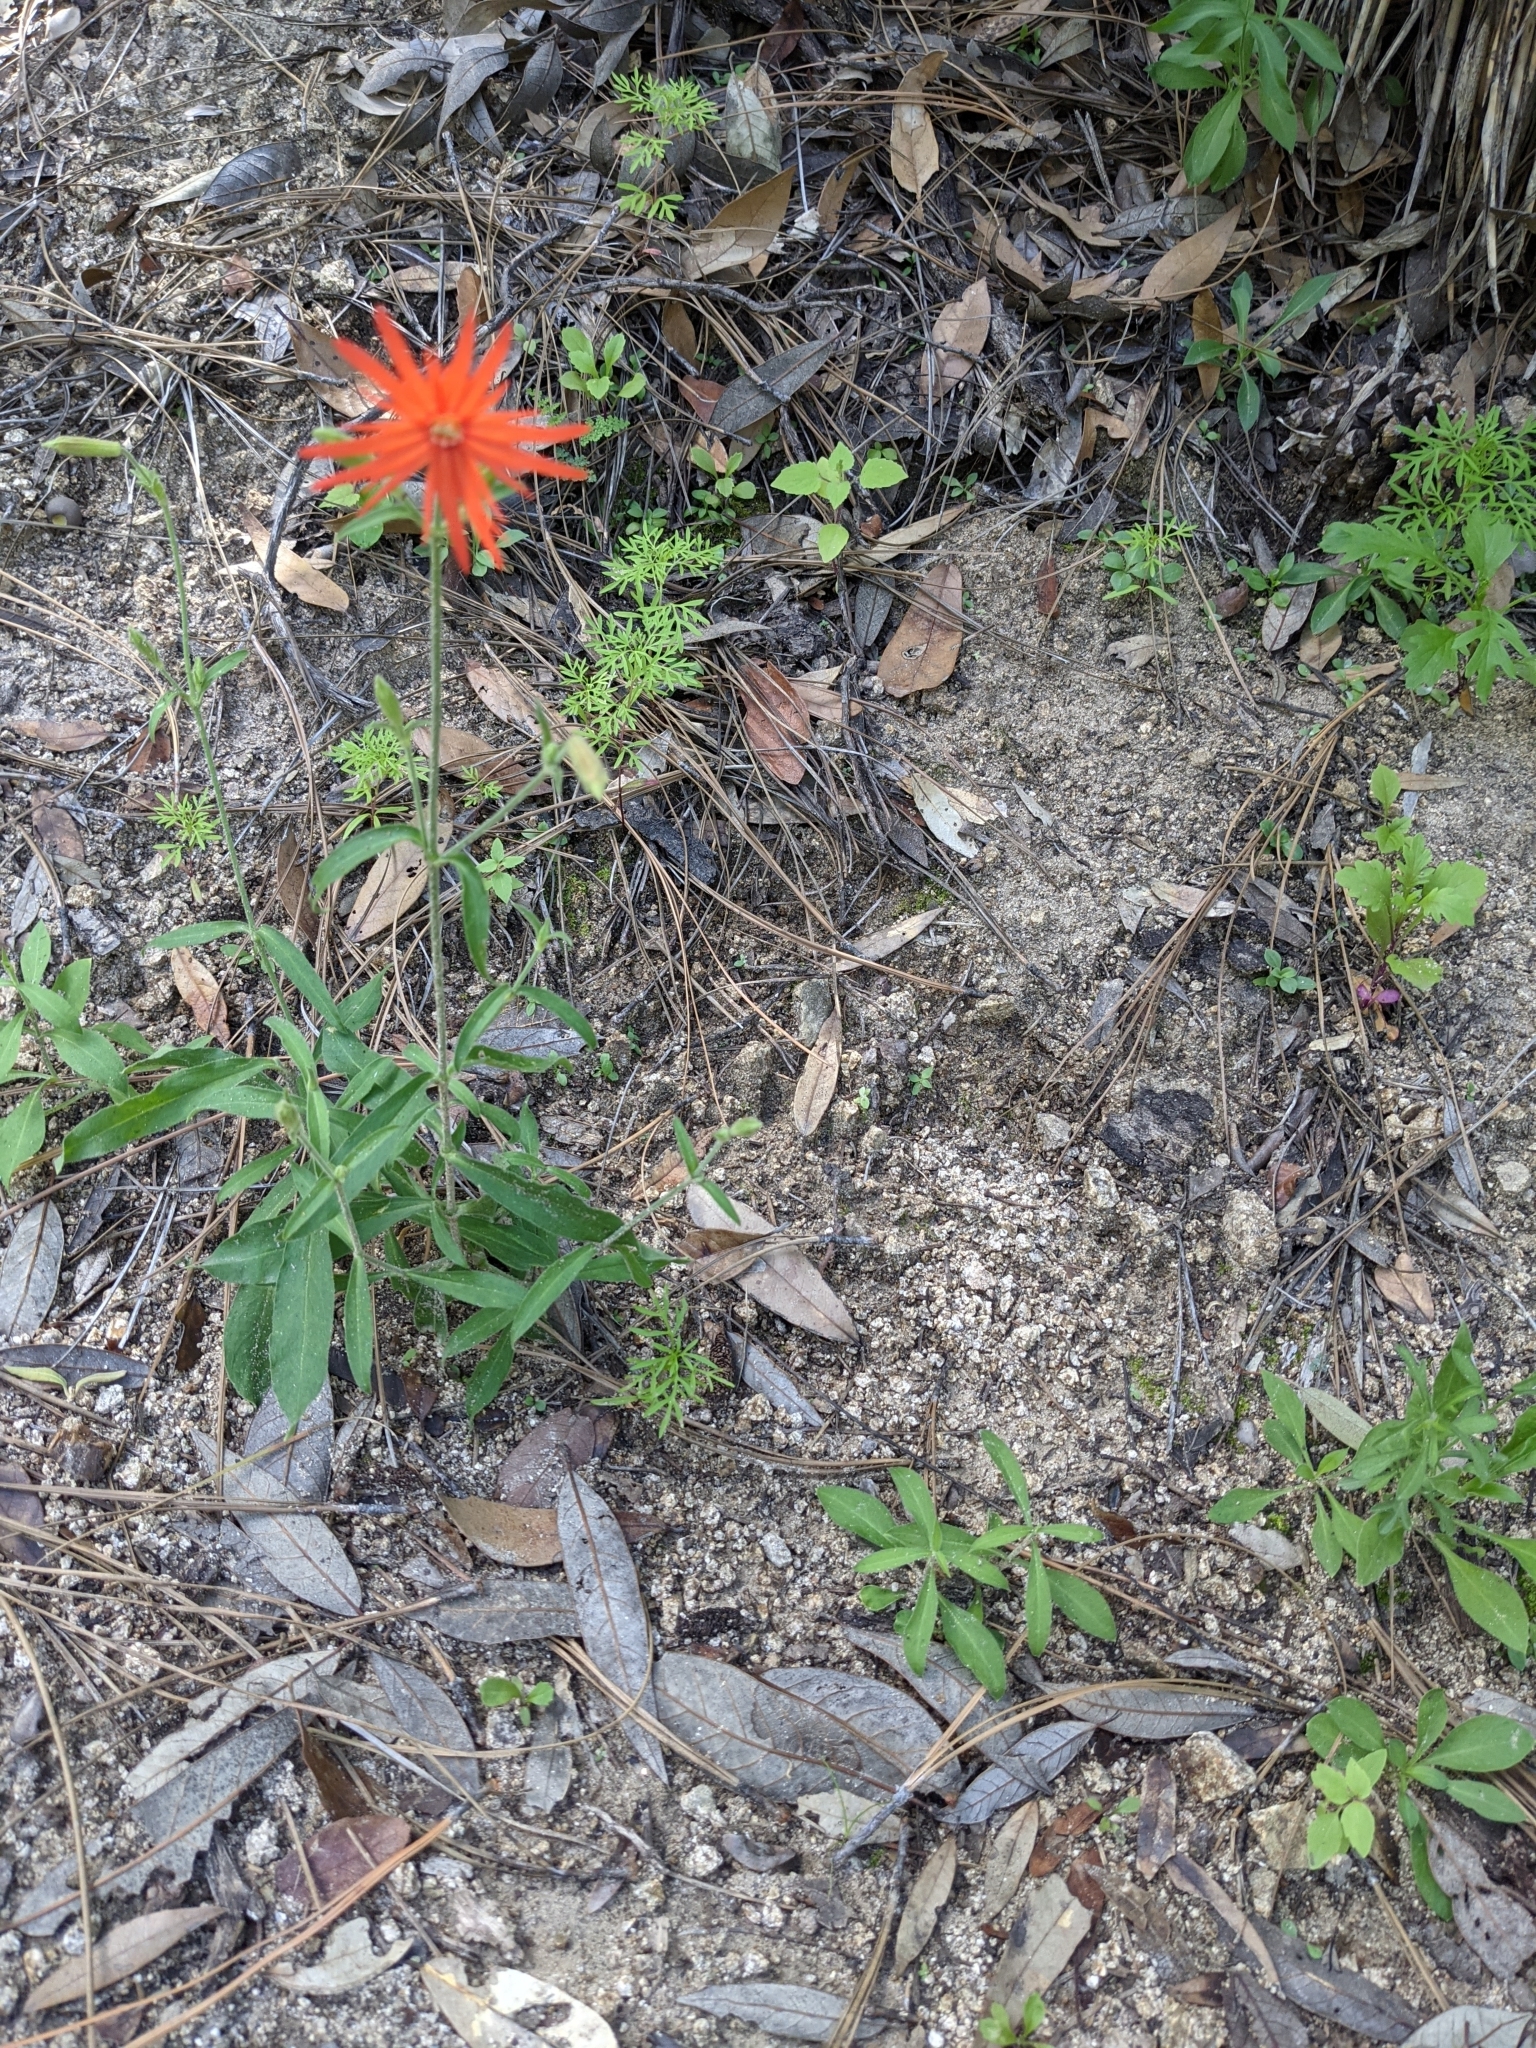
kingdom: Plantae
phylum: Tracheophyta
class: Magnoliopsida
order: Caryophyllales
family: Caryophyllaceae
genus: Silene
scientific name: Silene laciniata
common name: Indian-pink
